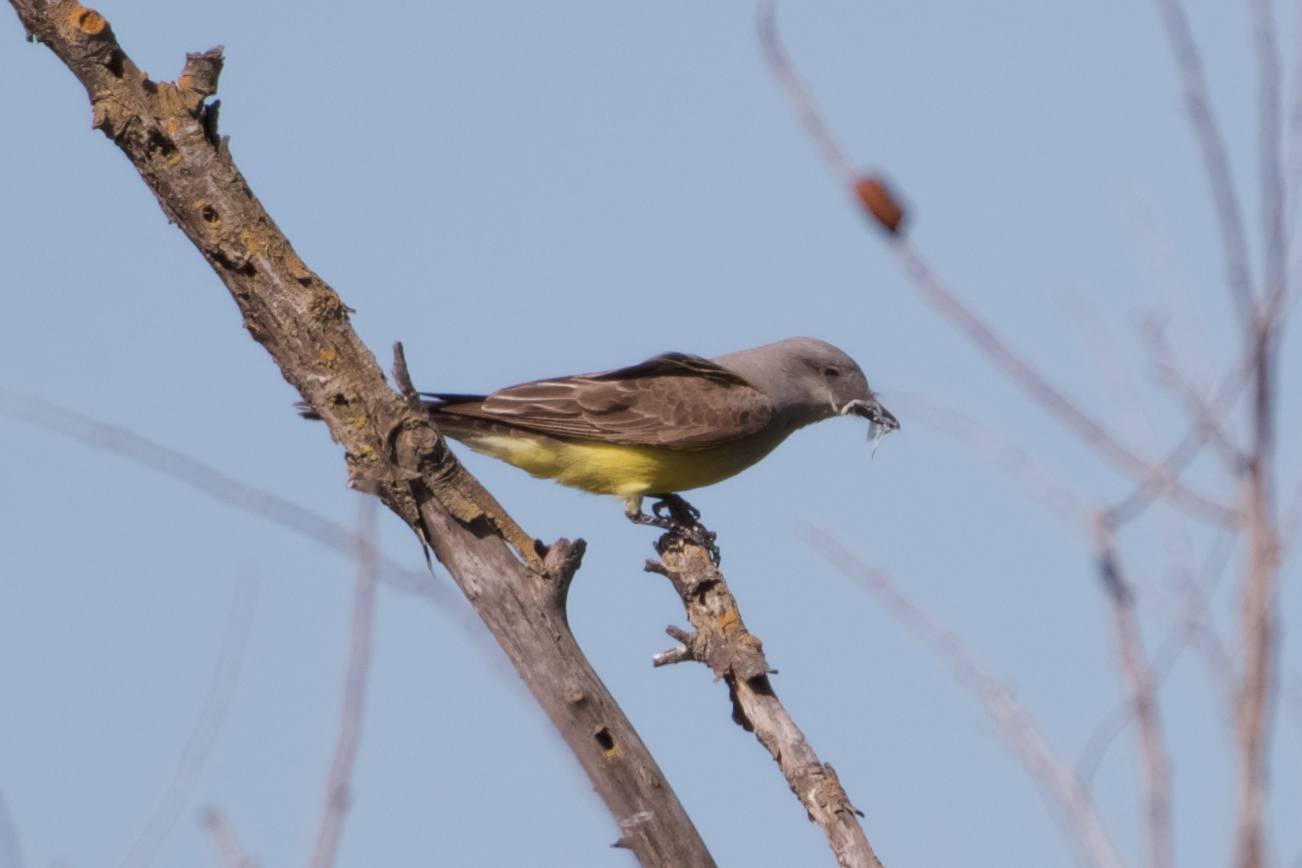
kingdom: Animalia
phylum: Chordata
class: Aves
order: Passeriformes
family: Tyrannidae
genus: Tyrannus
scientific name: Tyrannus verticalis
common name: Western kingbird
